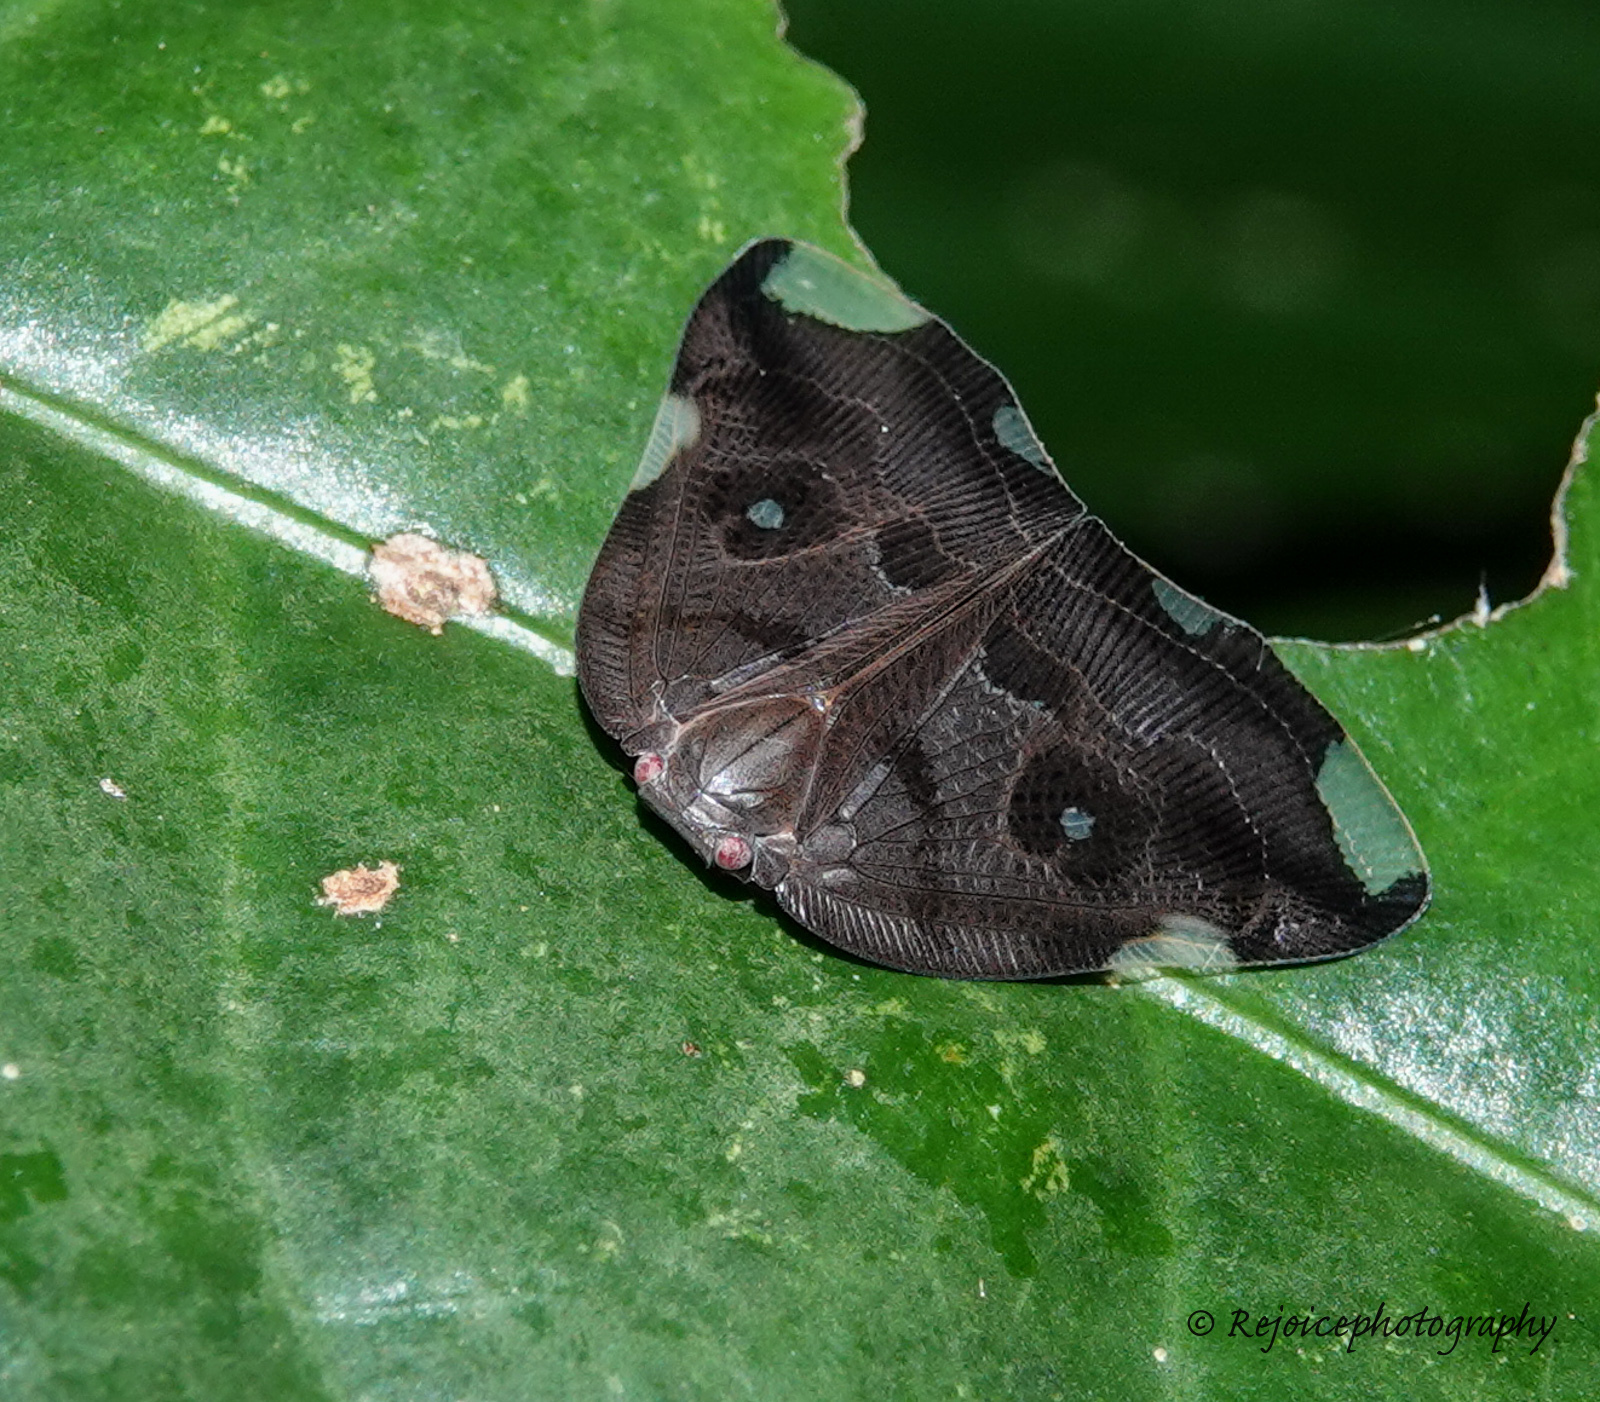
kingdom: Animalia
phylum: Arthropoda
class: Insecta
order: Hemiptera
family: Ricaniidae
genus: Pochazia
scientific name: Pochazia guttifera
